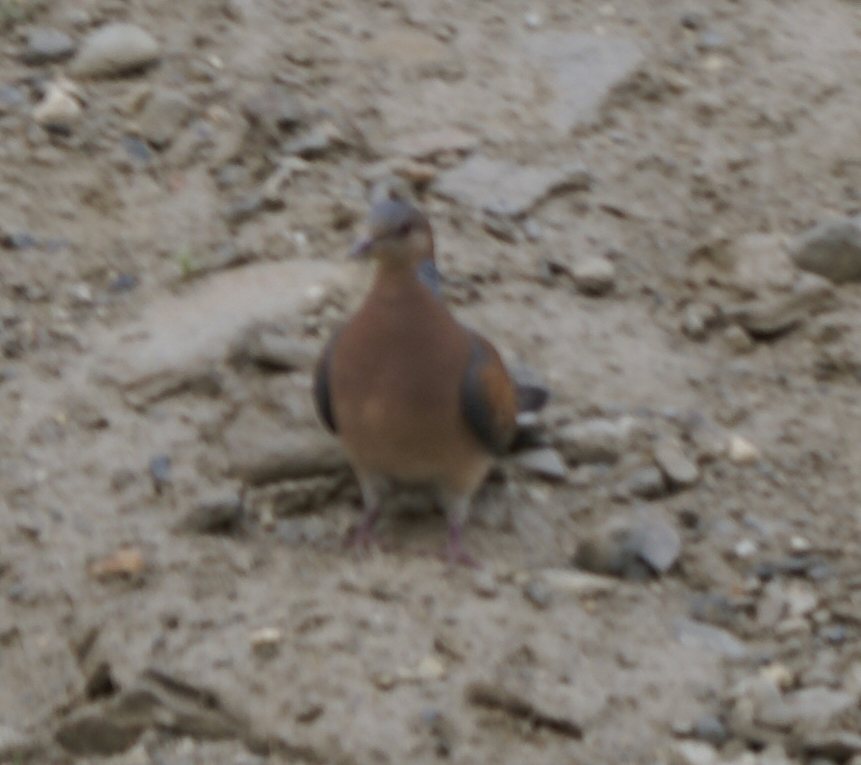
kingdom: Animalia
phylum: Chordata
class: Aves
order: Columbiformes
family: Columbidae
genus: Streptopelia
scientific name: Streptopelia orientalis
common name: Oriental turtle dove
